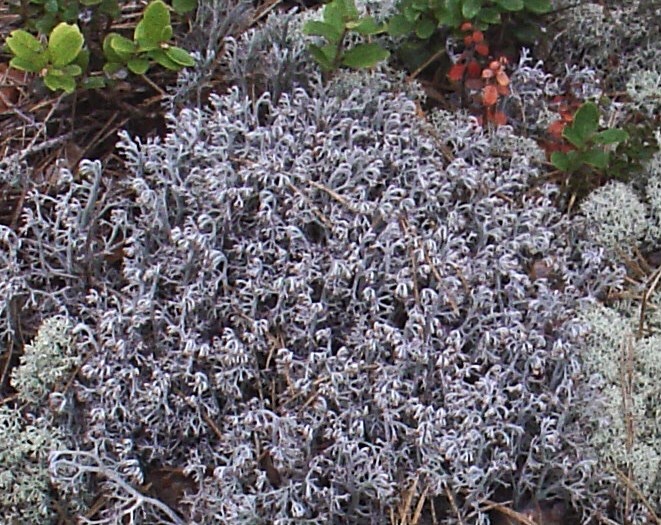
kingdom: Fungi
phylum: Ascomycota
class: Lecanoromycetes
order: Lecanorales
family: Cladoniaceae
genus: Cladonia
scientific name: Cladonia rangiferina
